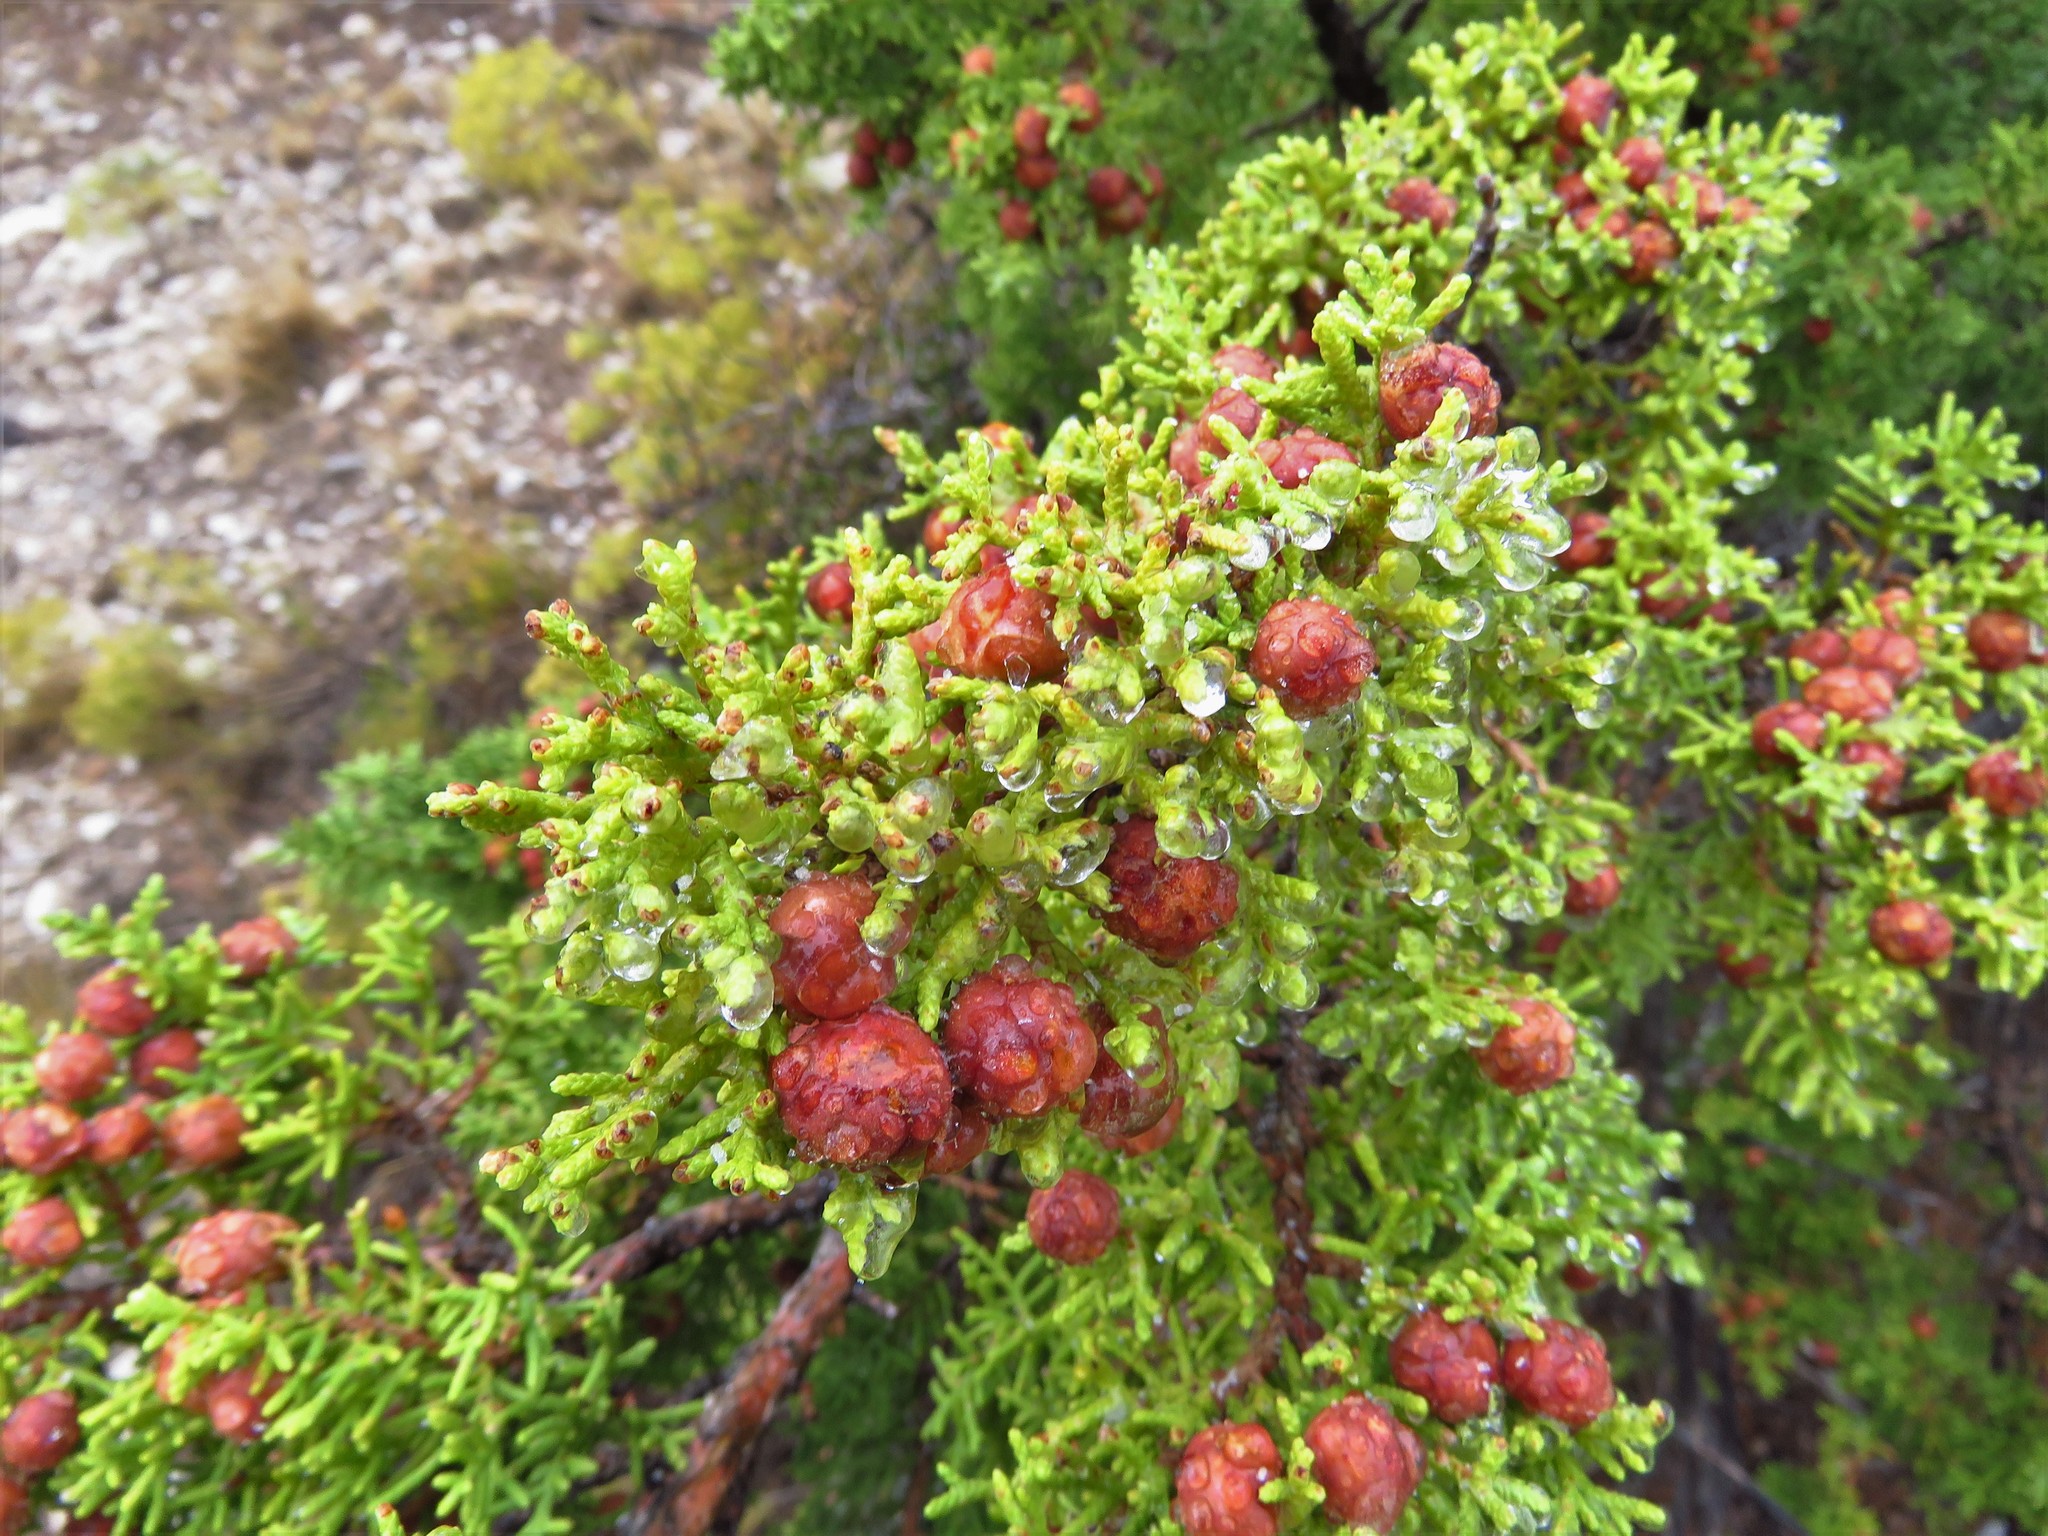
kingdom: Plantae
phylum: Tracheophyta
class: Pinopsida
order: Pinales
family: Cupressaceae
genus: Juniperus
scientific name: Juniperus pinchotii
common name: Pinchot juniper
